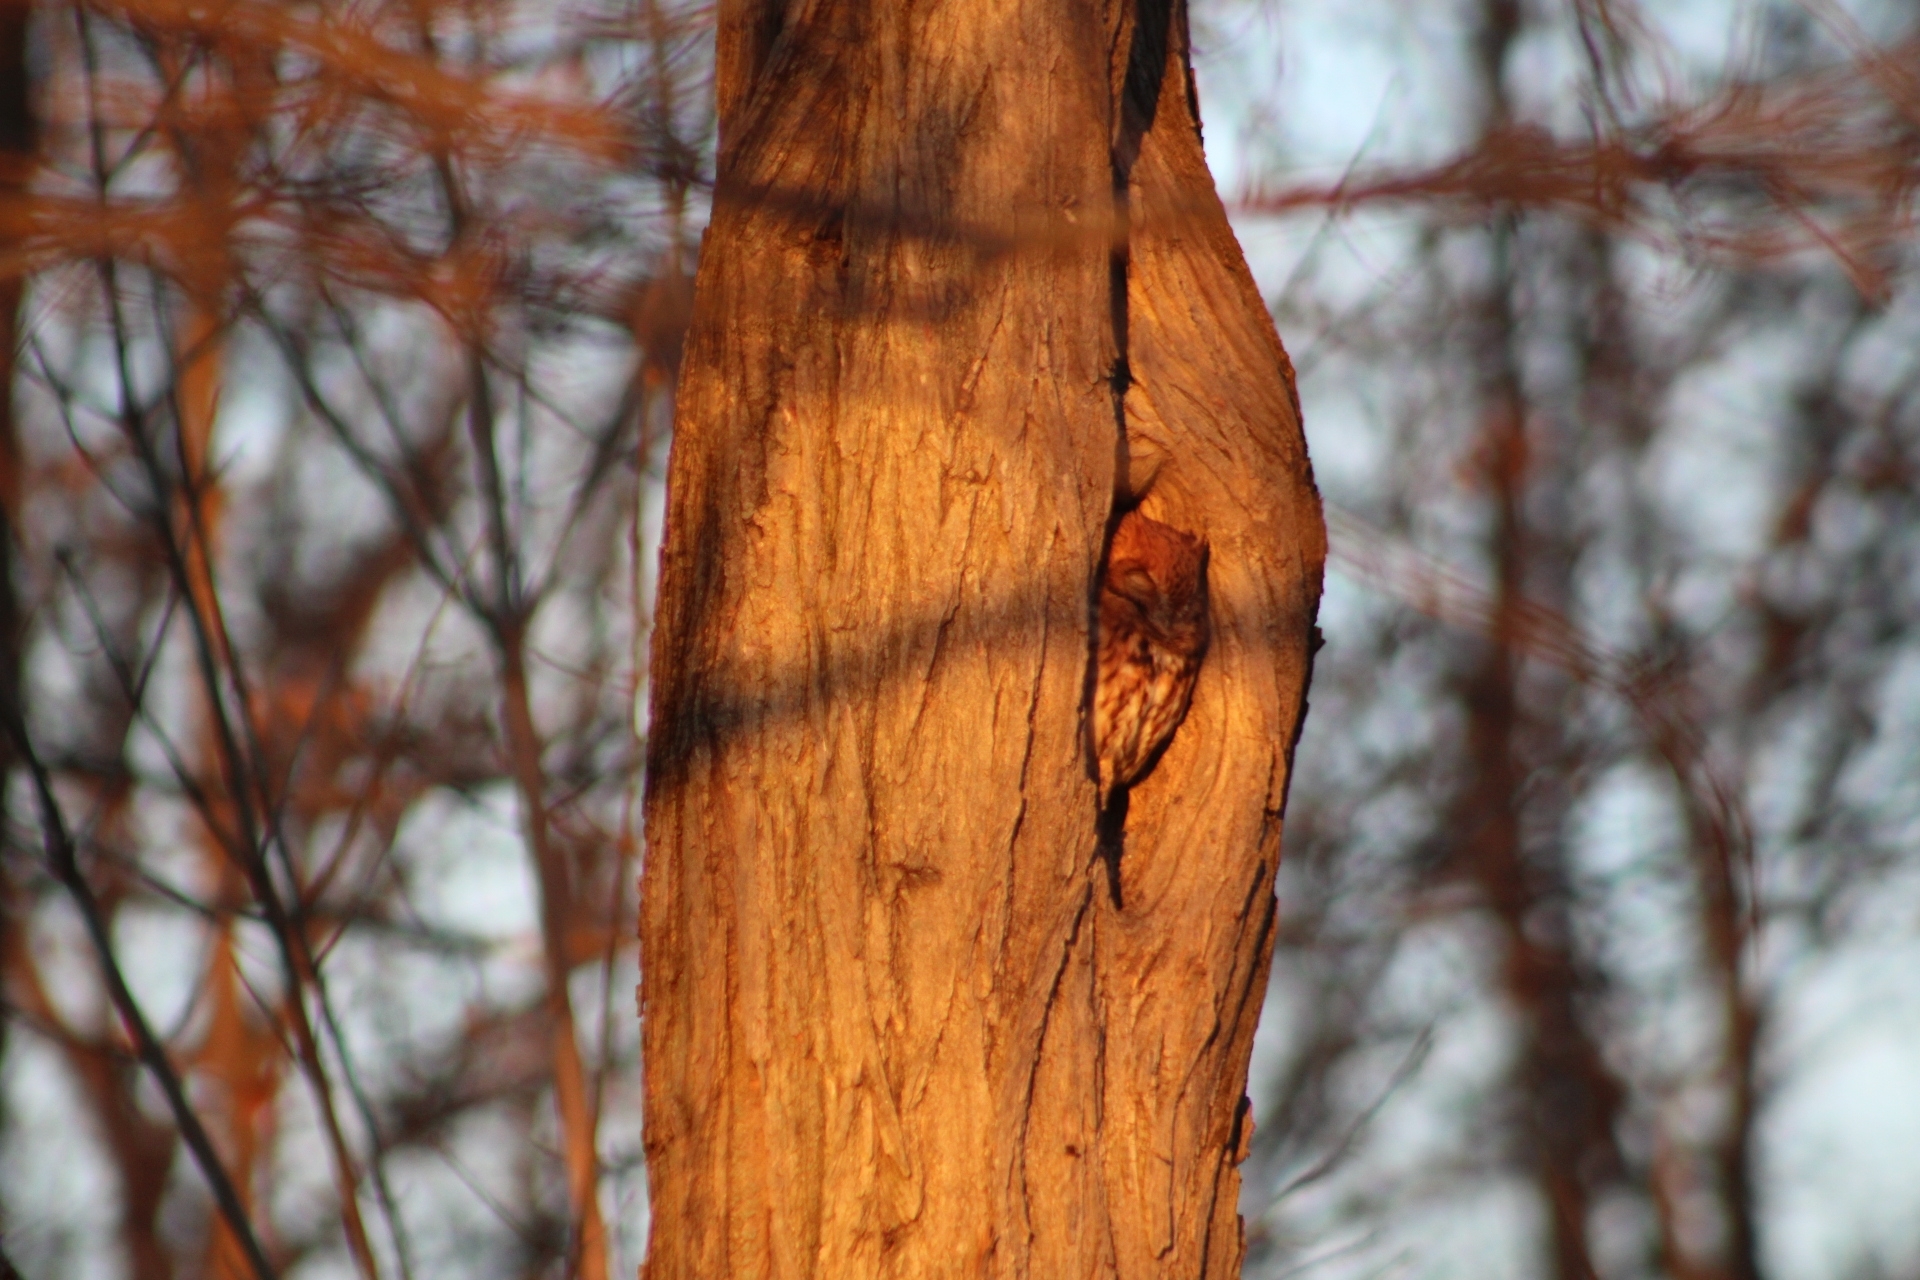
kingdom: Animalia
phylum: Chordata
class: Aves
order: Strigiformes
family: Strigidae
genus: Megascops
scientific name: Megascops asio
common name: Eastern screech-owl
